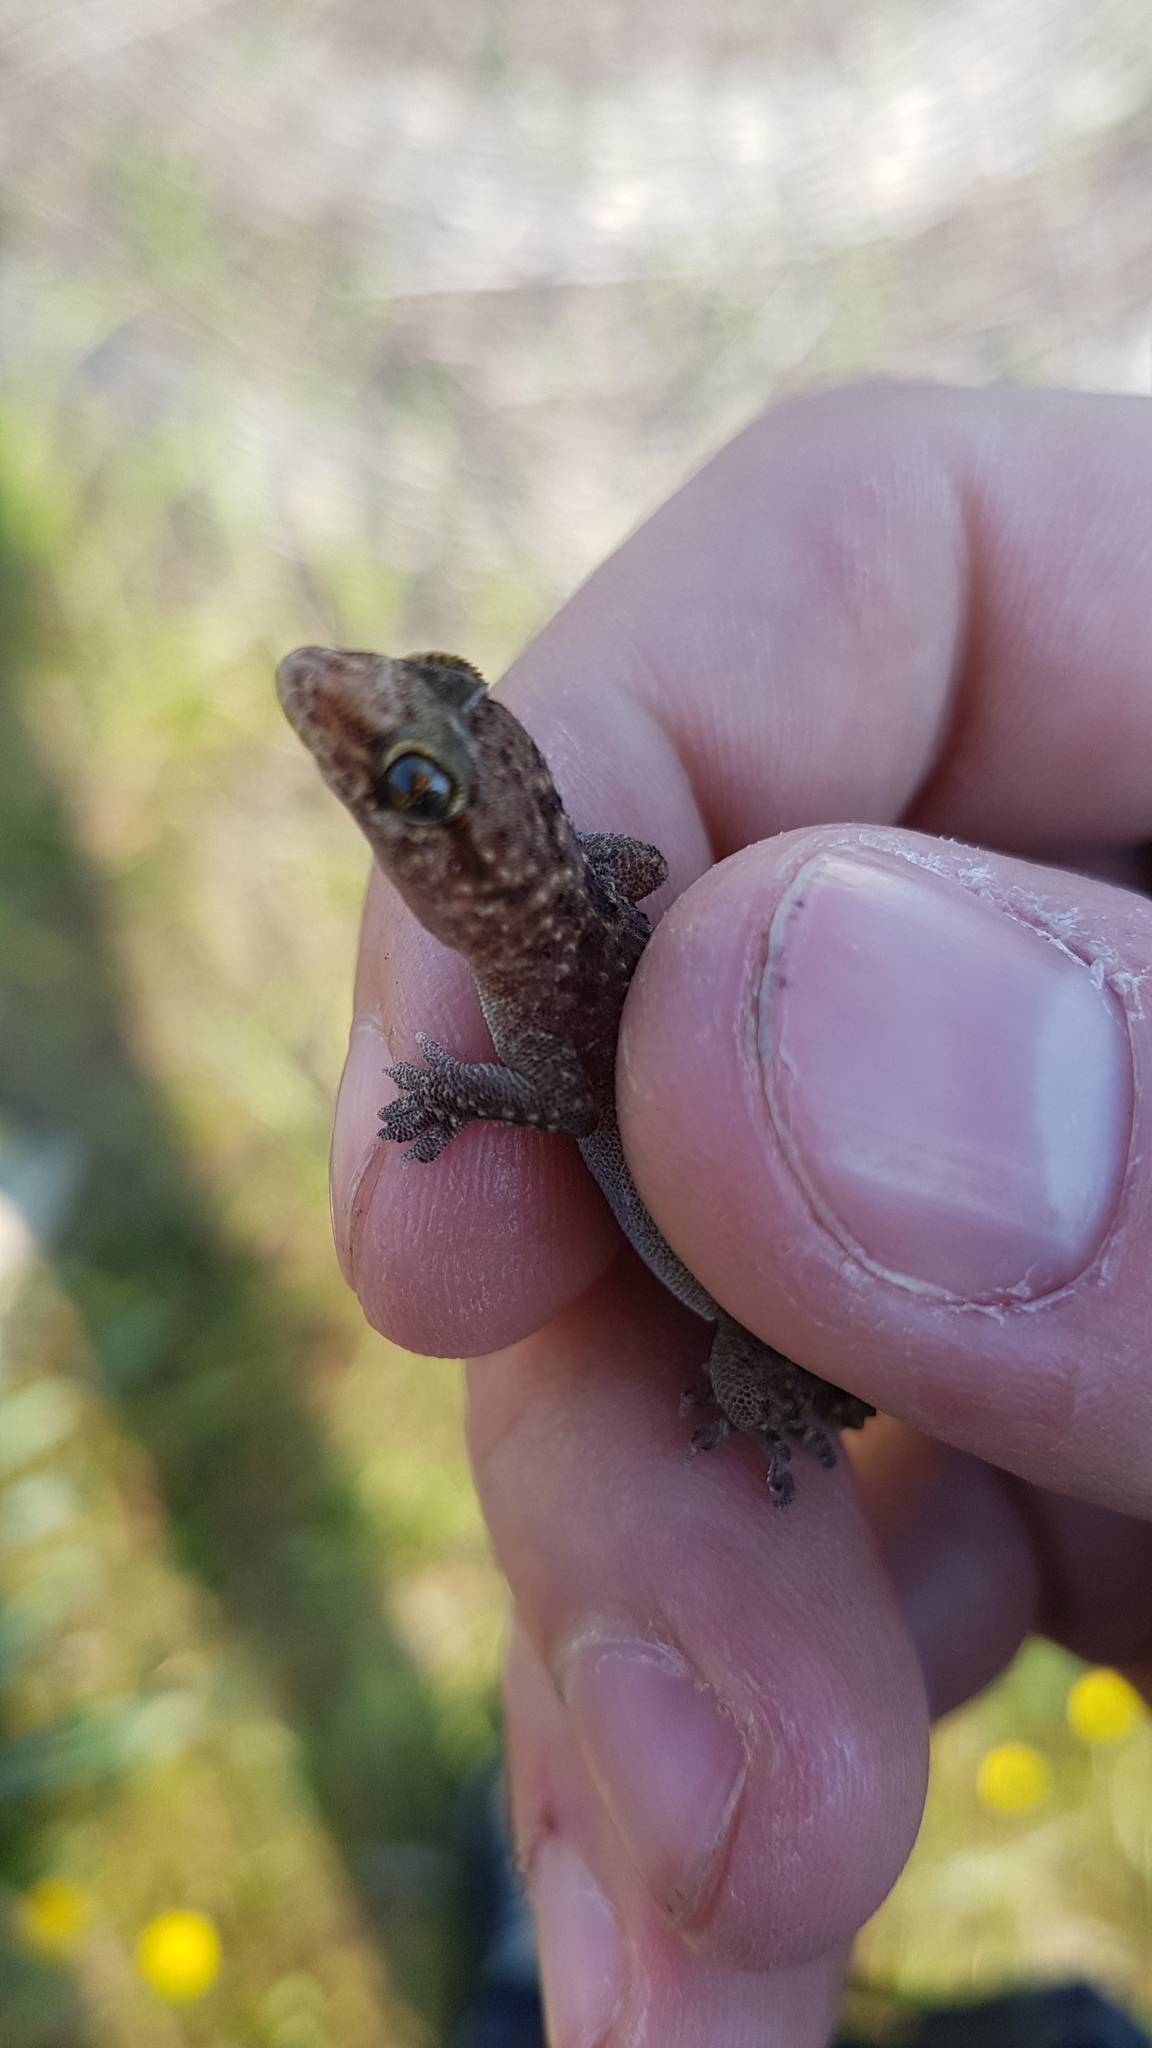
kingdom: Animalia
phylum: Chordata
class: Squamata
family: Gekkonidae
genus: Hemidactylus
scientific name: Hemidactylus turcicus
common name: Turkish gecko
